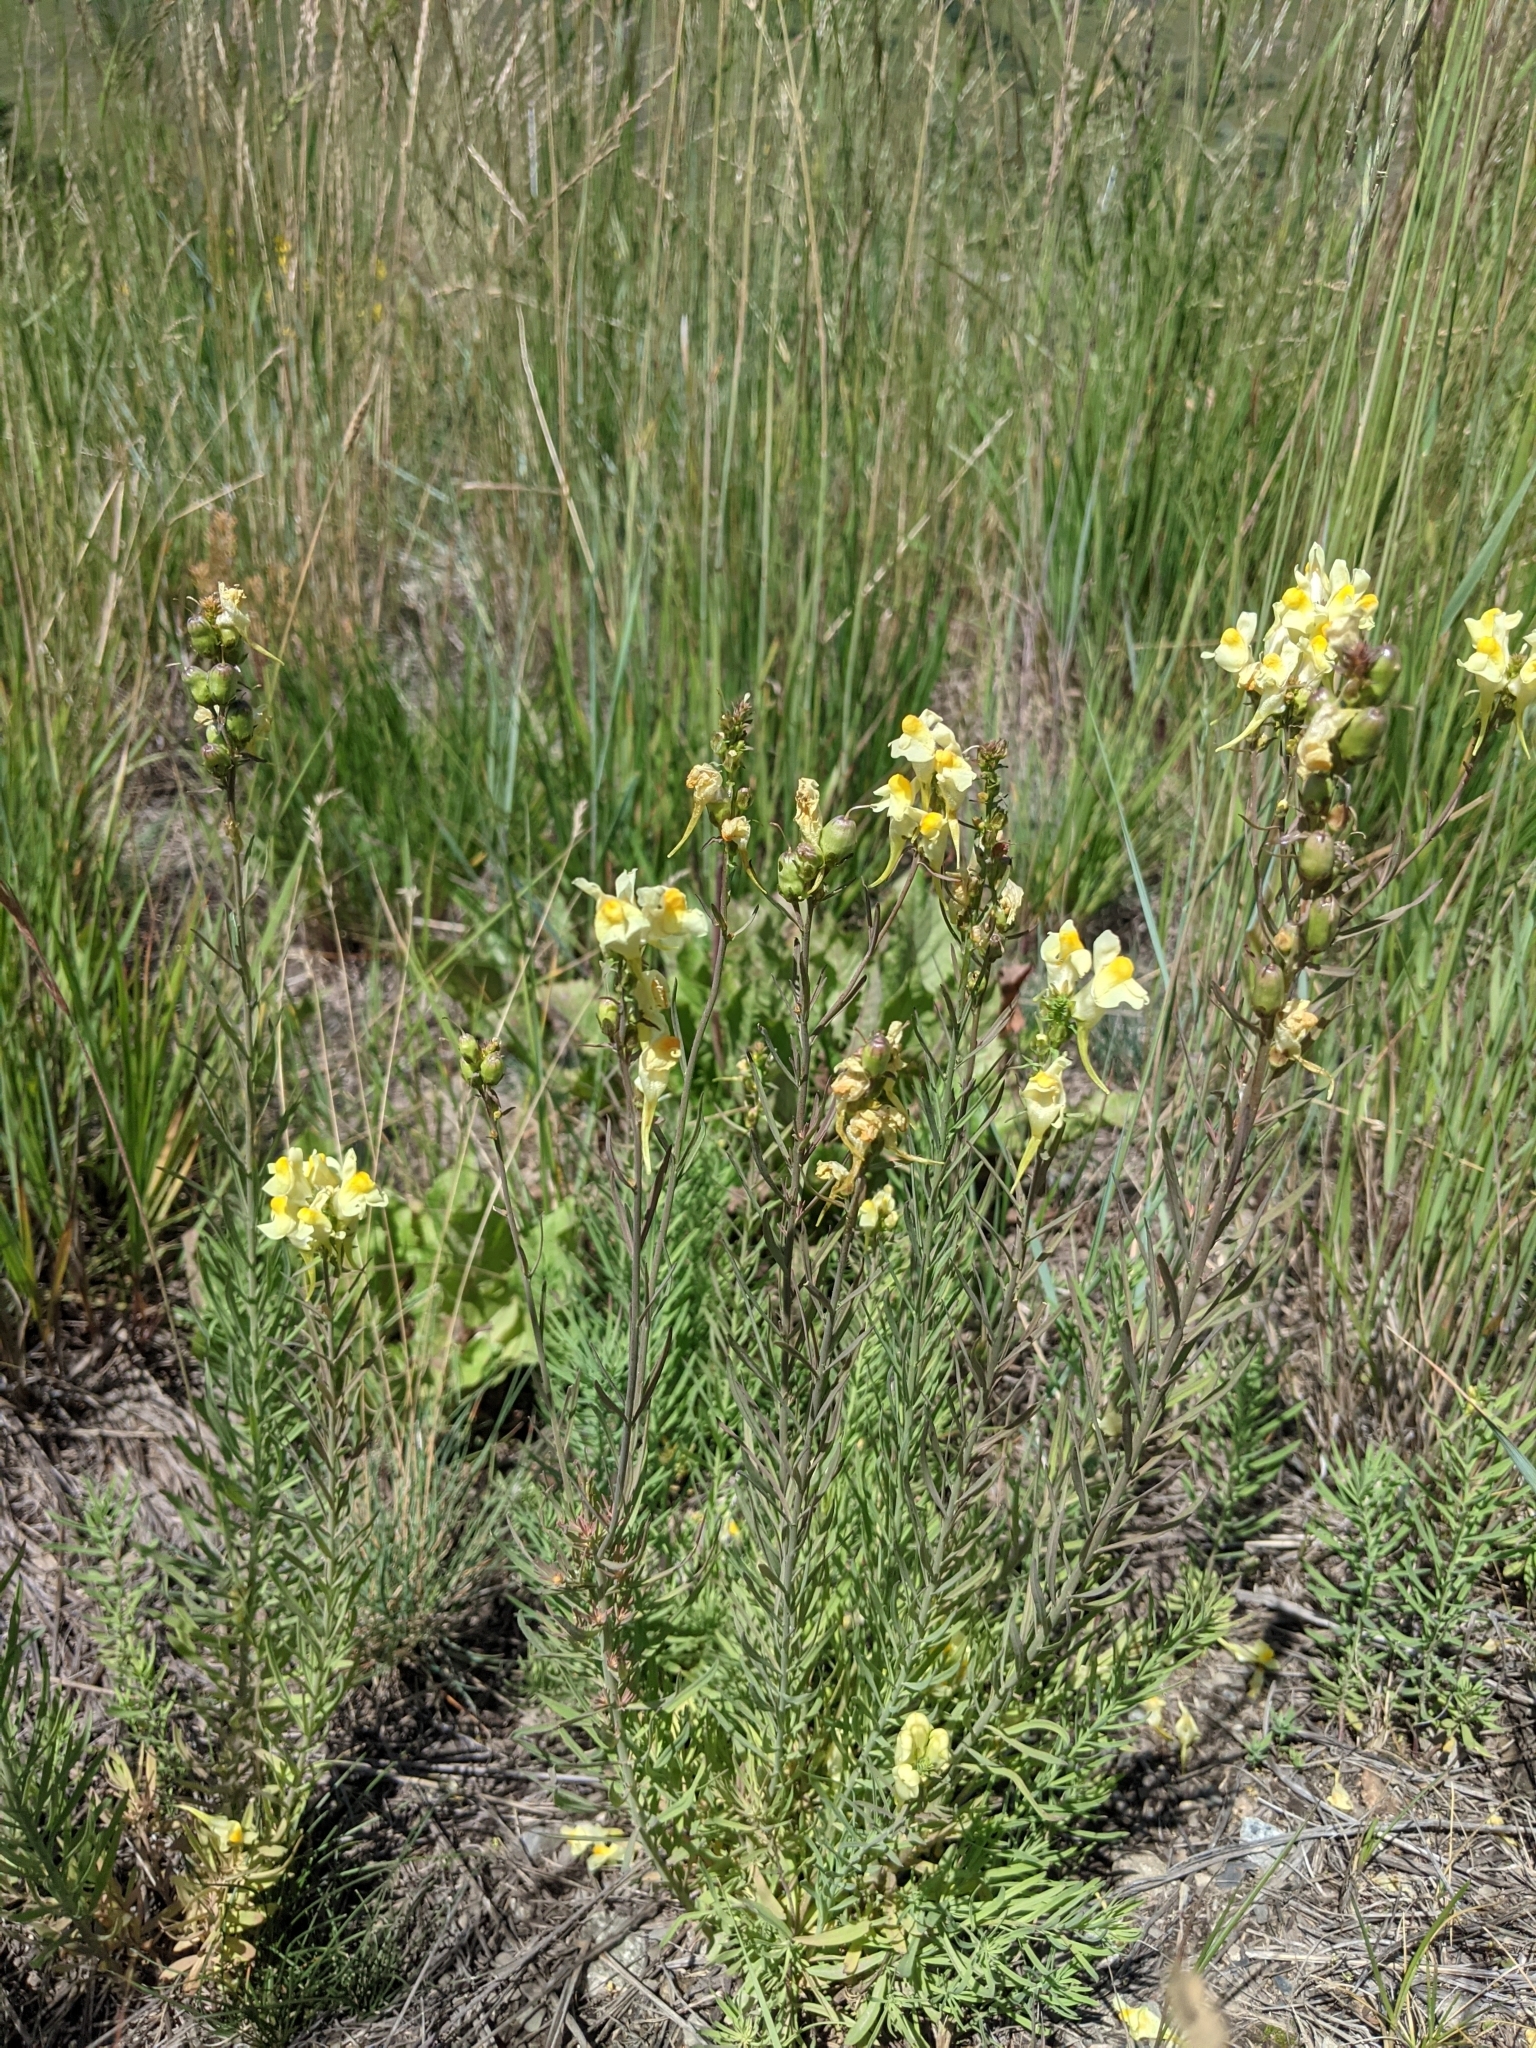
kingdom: Plantae
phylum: Tracheophyta
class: Magnoliopsida
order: Lamiales
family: Plantaginaceae
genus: Linaria
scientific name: Linaria vulgaris
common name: Butter and eggs
